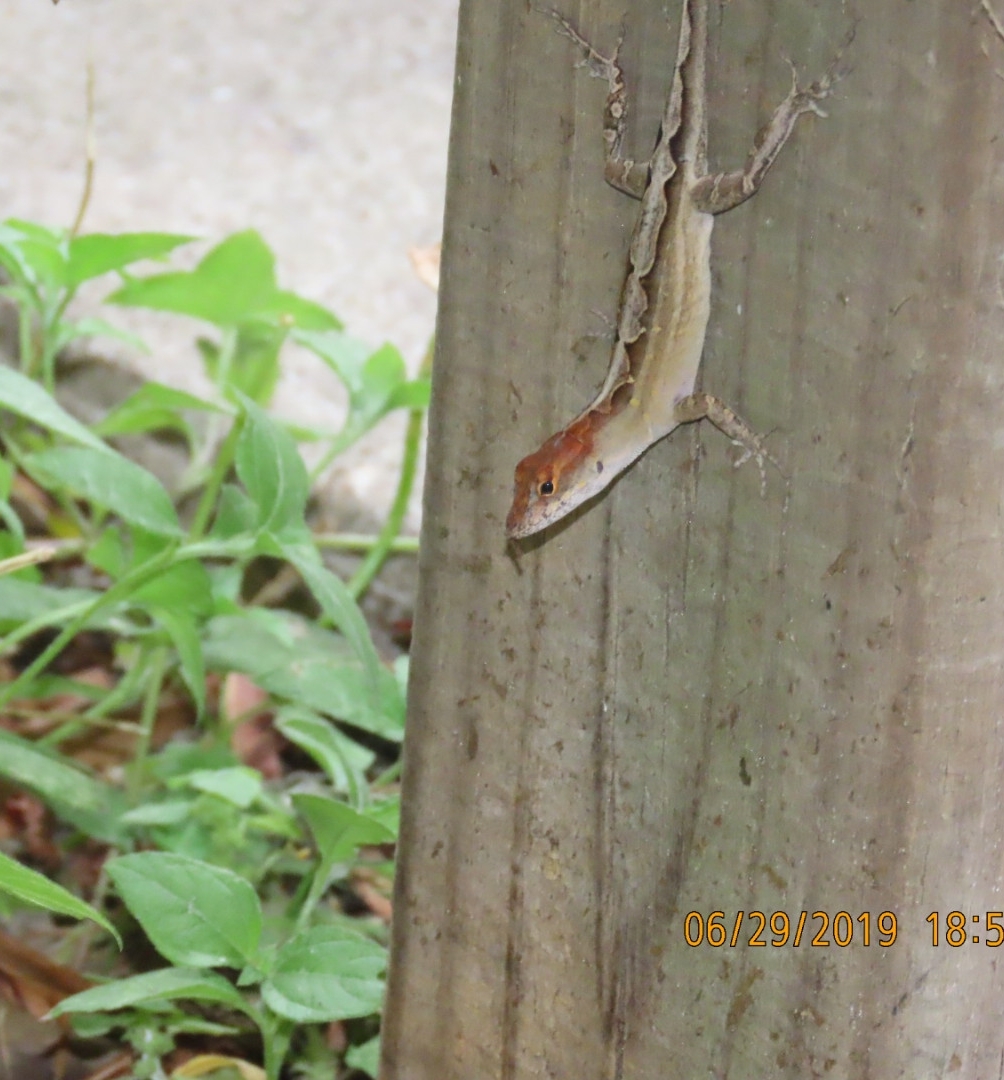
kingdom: Animalia
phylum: Chordata
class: Squamata
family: Dactyloidae
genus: Anolis
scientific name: Anolis sagrei
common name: Brown anole
